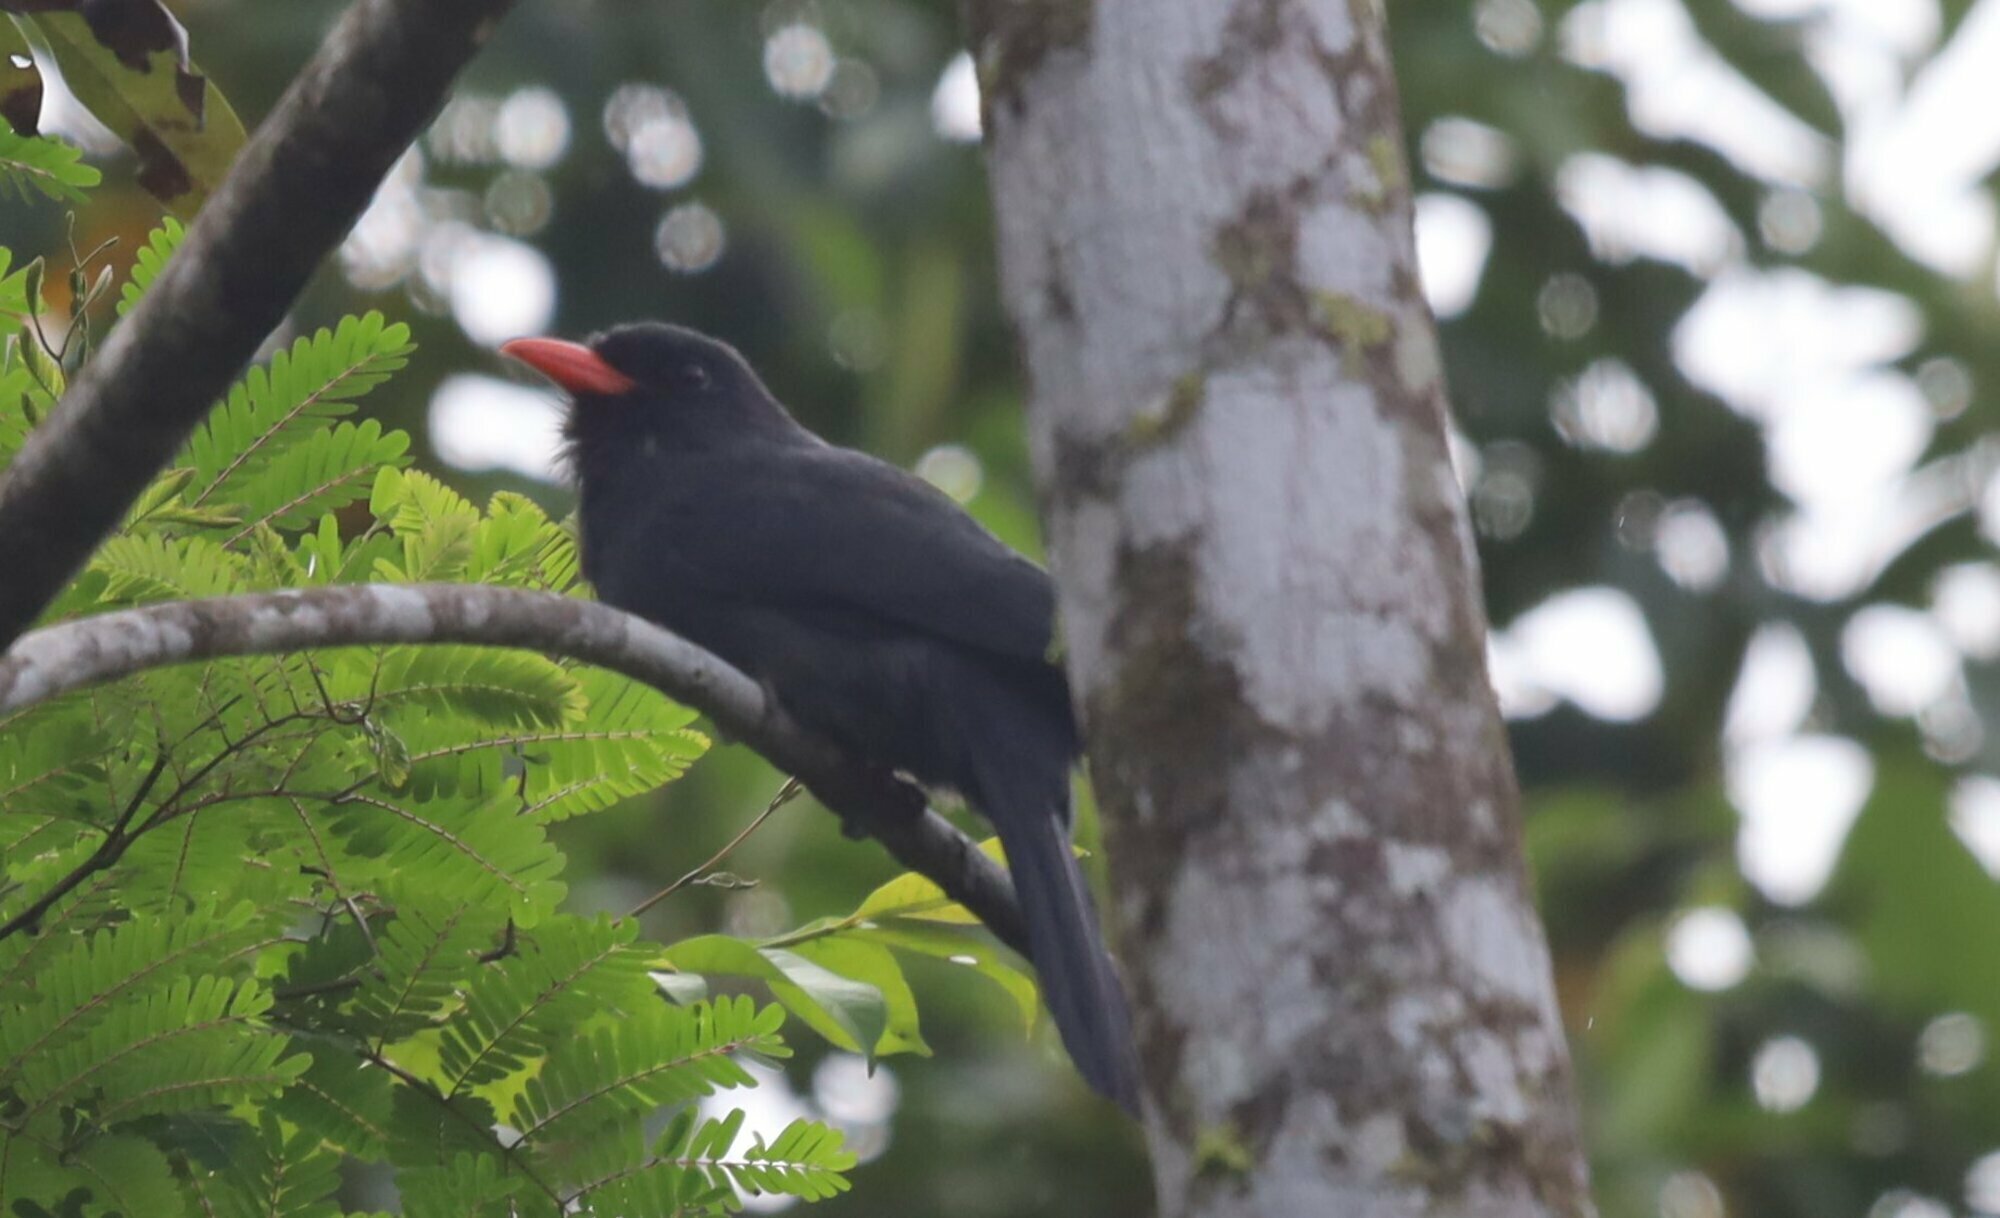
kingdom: Animalia
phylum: Chordata
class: Aves
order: Piciformes
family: Bucconidae
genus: Monasa
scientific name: Monasa nigrifrons
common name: Black-fronted nunbird
